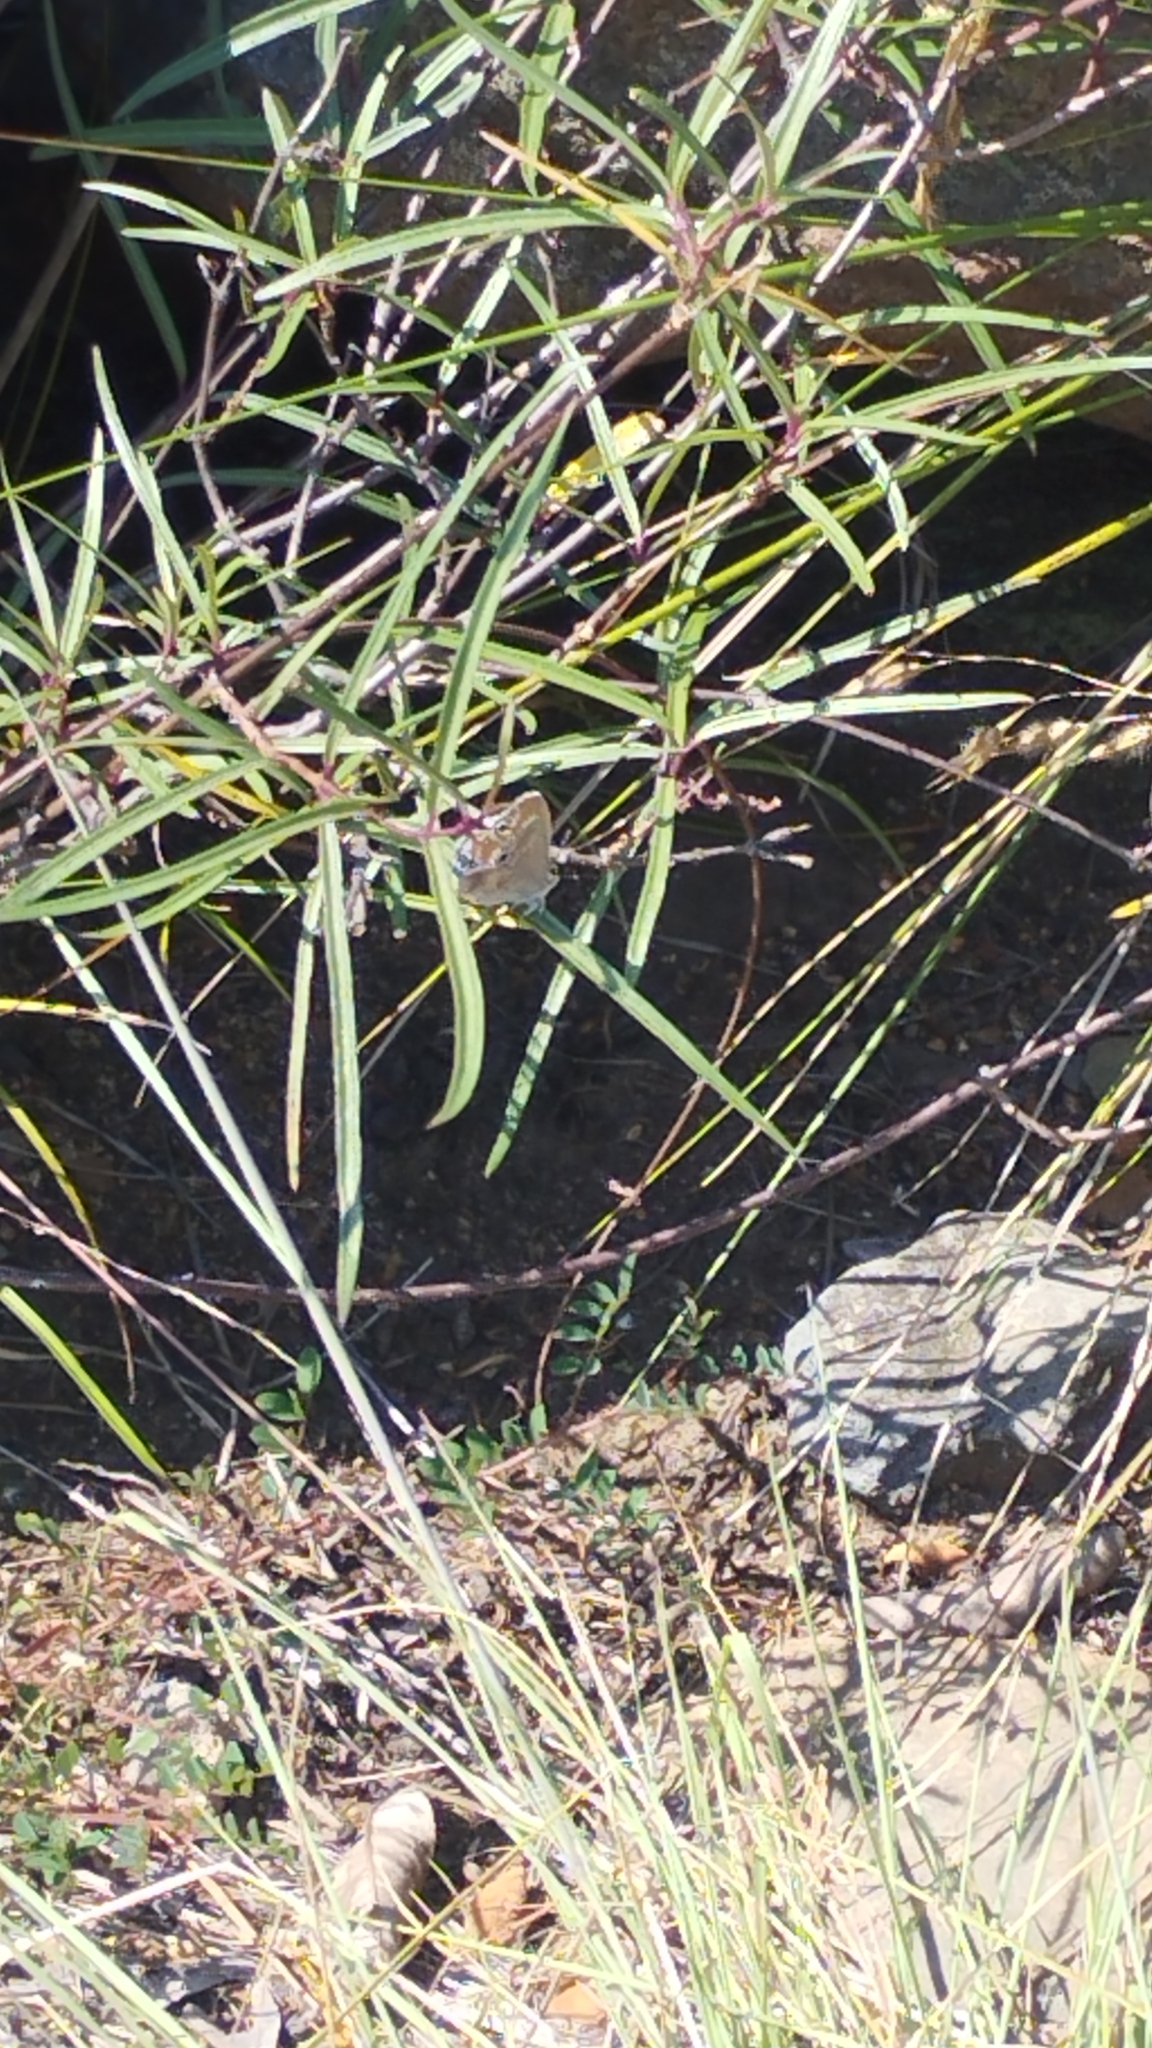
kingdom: Animalia
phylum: Arthropoda
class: Insecta
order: Lepidoptera
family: Lycaenidae
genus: Leptomyrina
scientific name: Leptomyrina gorgias
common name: Common black-eye
